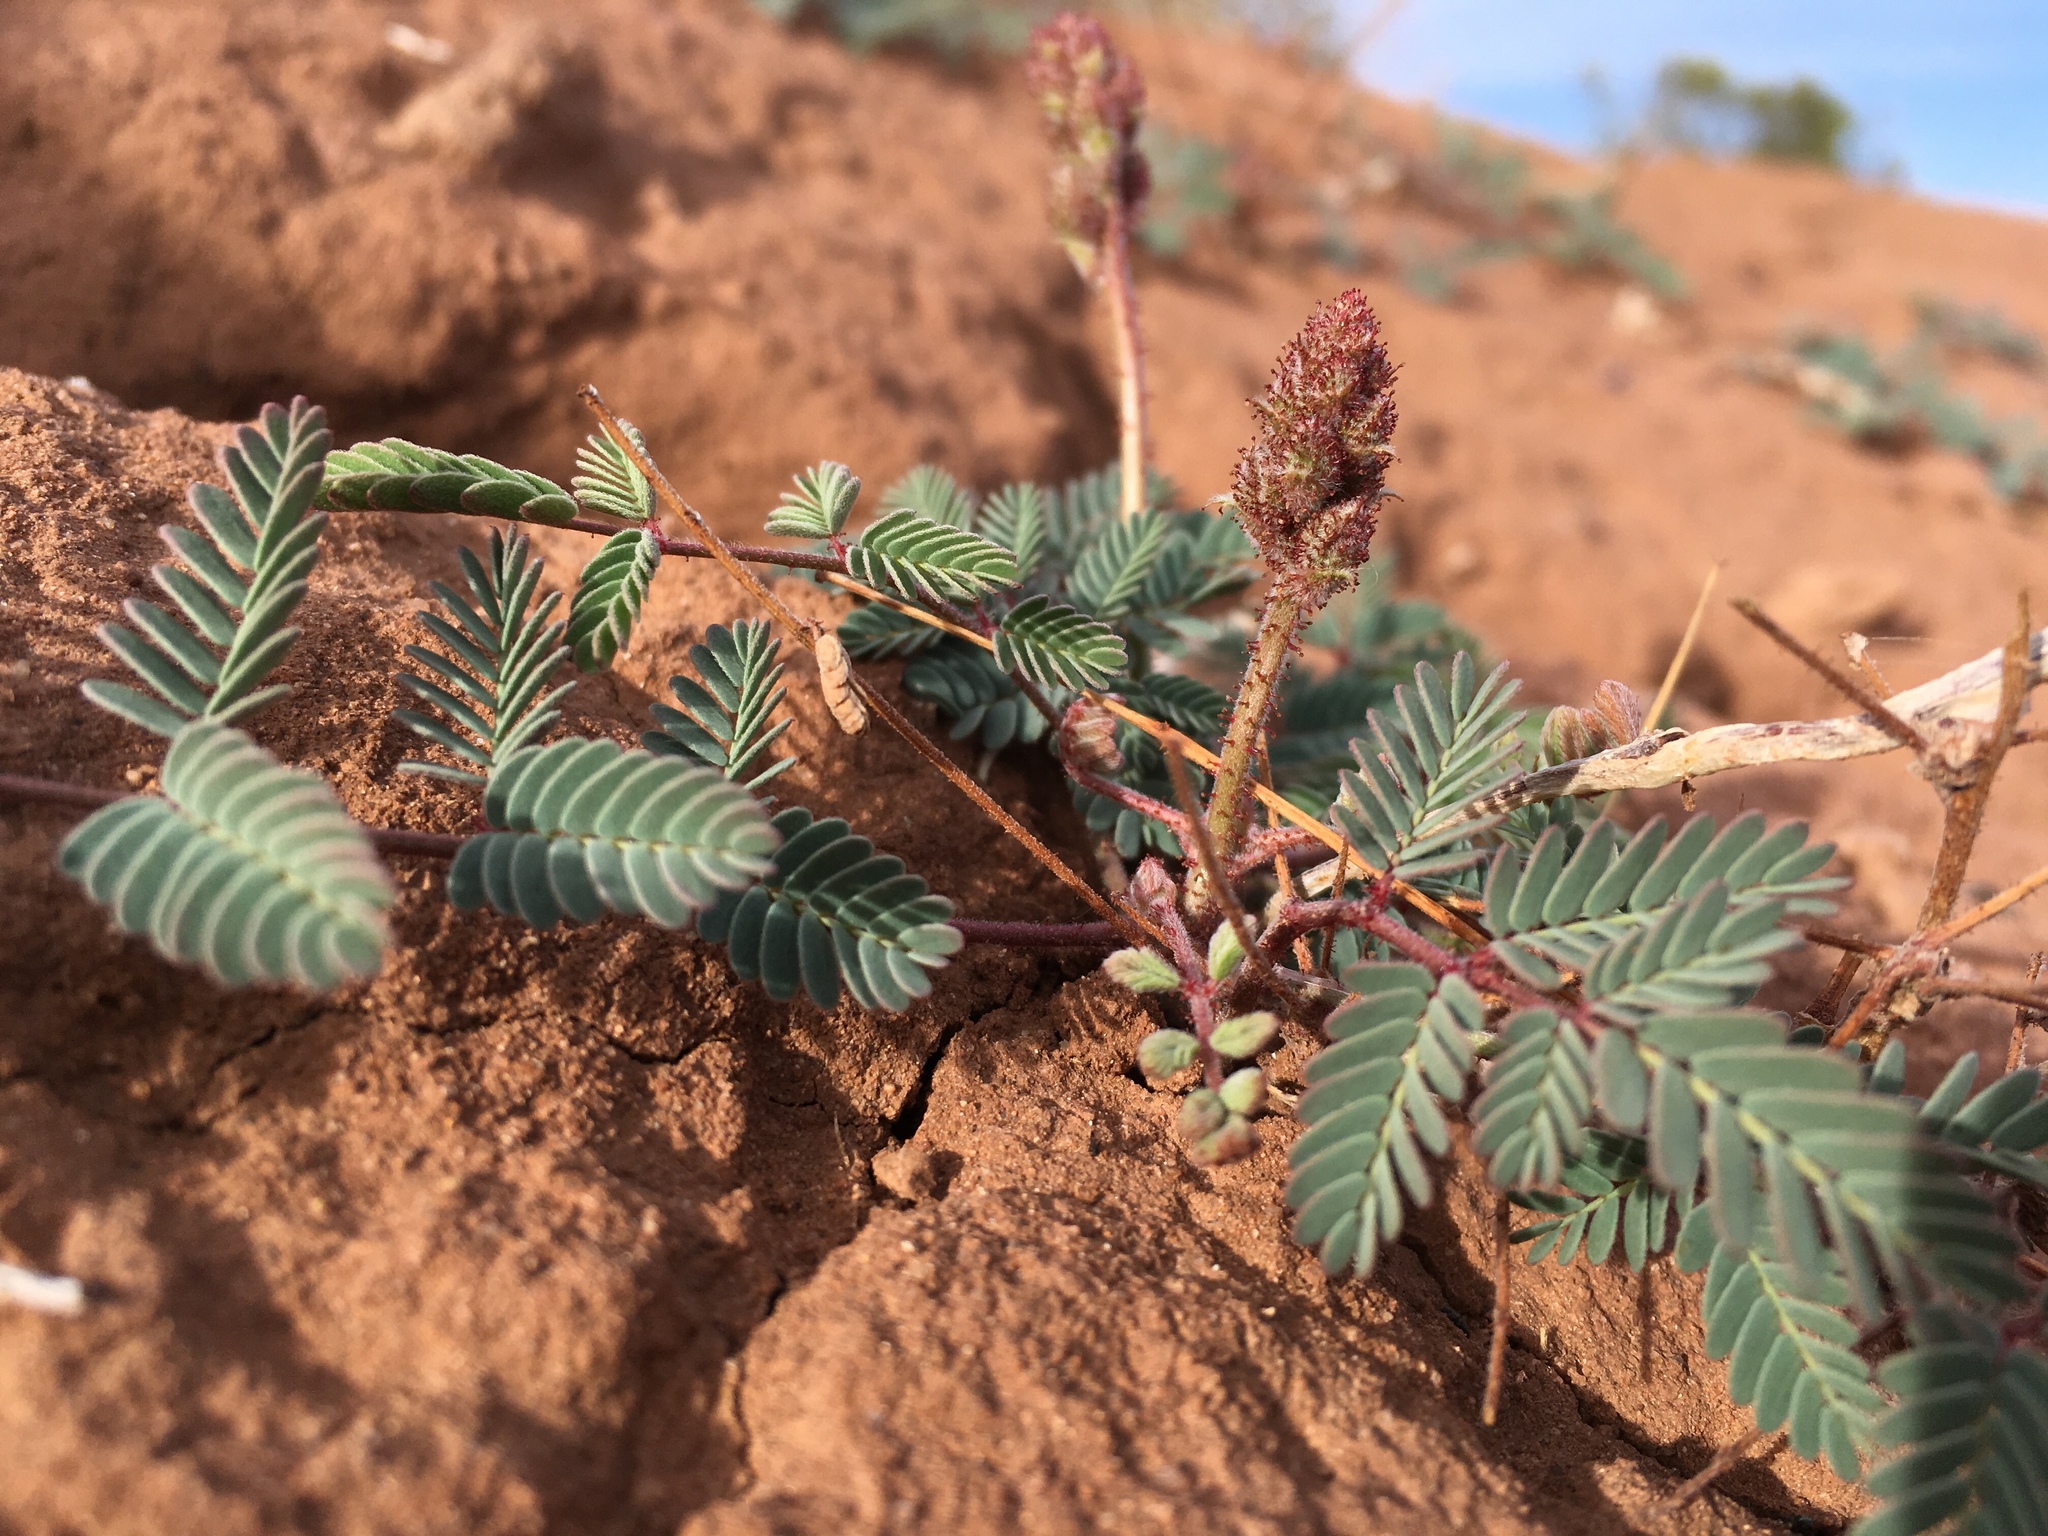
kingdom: Plantae
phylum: Tracheophyta
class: Magnoliopsida
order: Fabales
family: Fabaceae
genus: Hoffmannseggia
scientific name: Hoffmannseggia glauca
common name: Pignut
